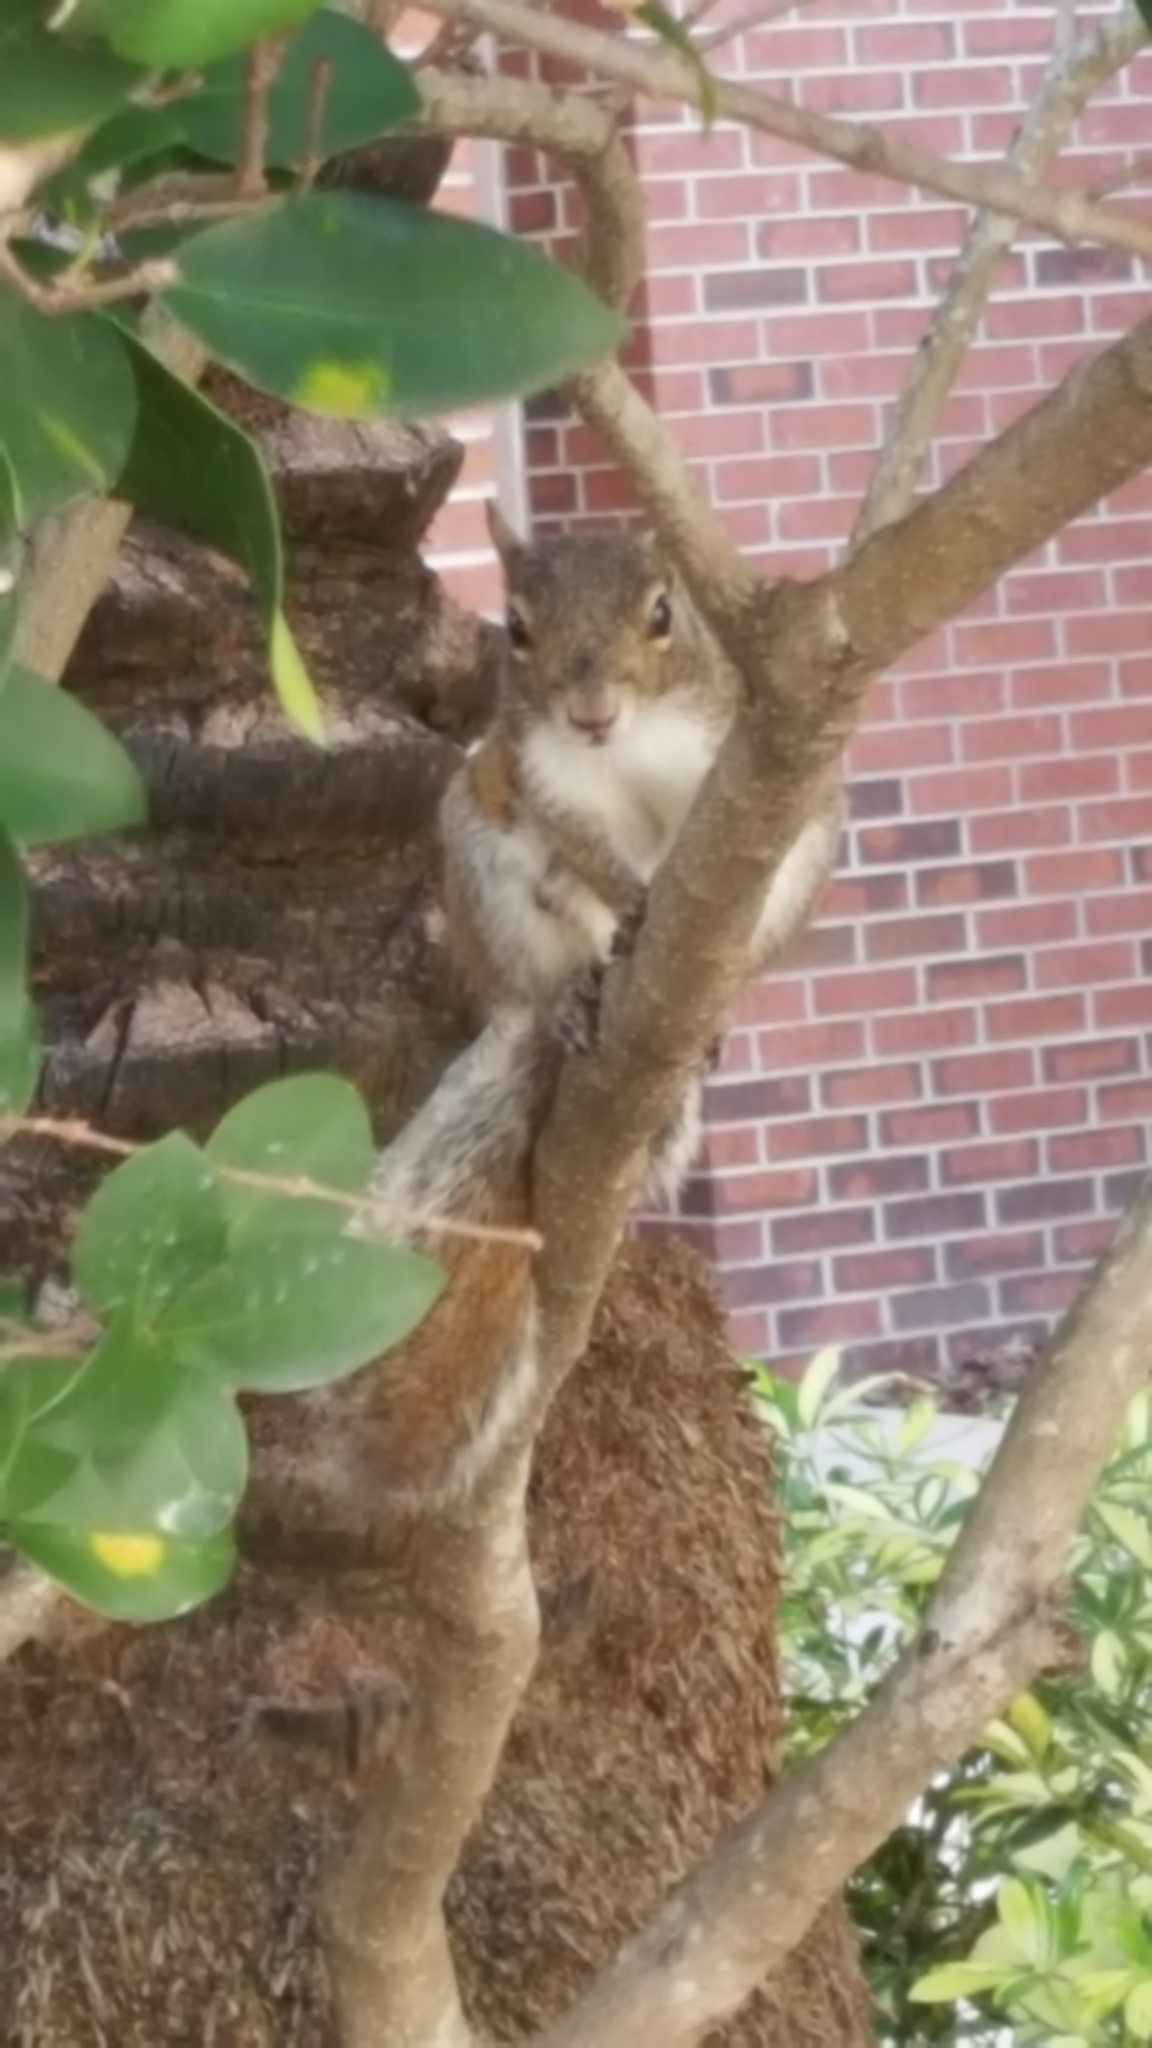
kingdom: Animalia
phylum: Chordata
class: Mammalia
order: Rodentia
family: Sciuridae
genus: Sciurus
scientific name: Sciurus carolinensis
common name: Eastern gray squirrel
